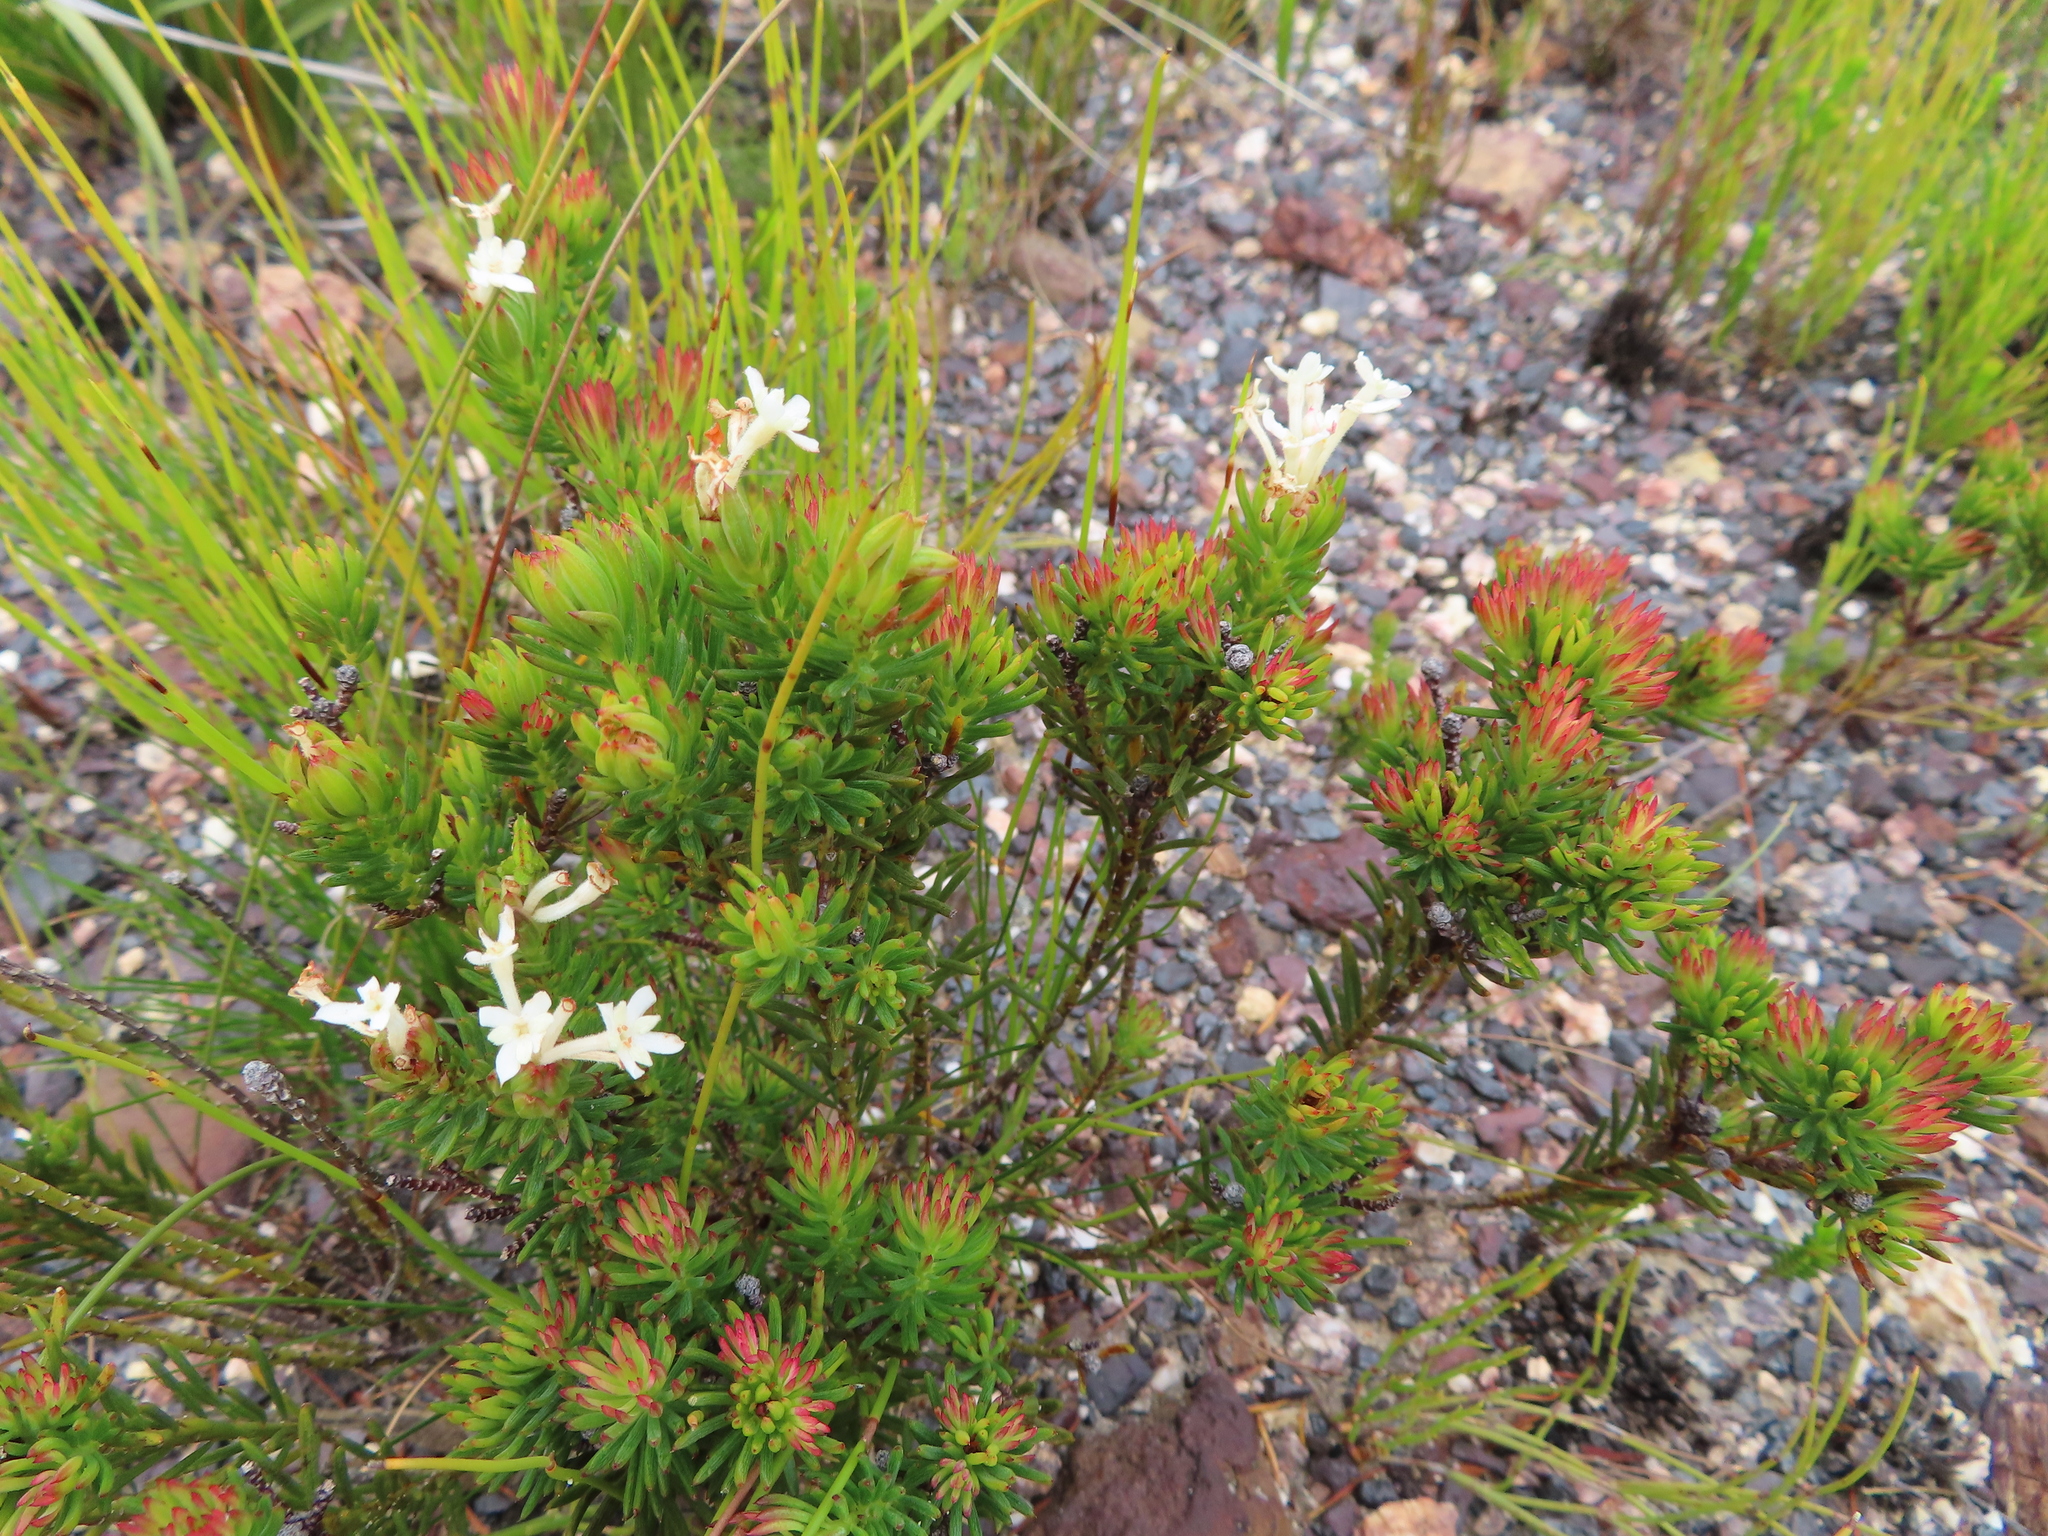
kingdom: Plantae
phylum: Tracheophyta
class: Magnoliopsida
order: Malvales
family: Thymelaeaceae
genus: Gnidia
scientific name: Gnidia pinifolia
